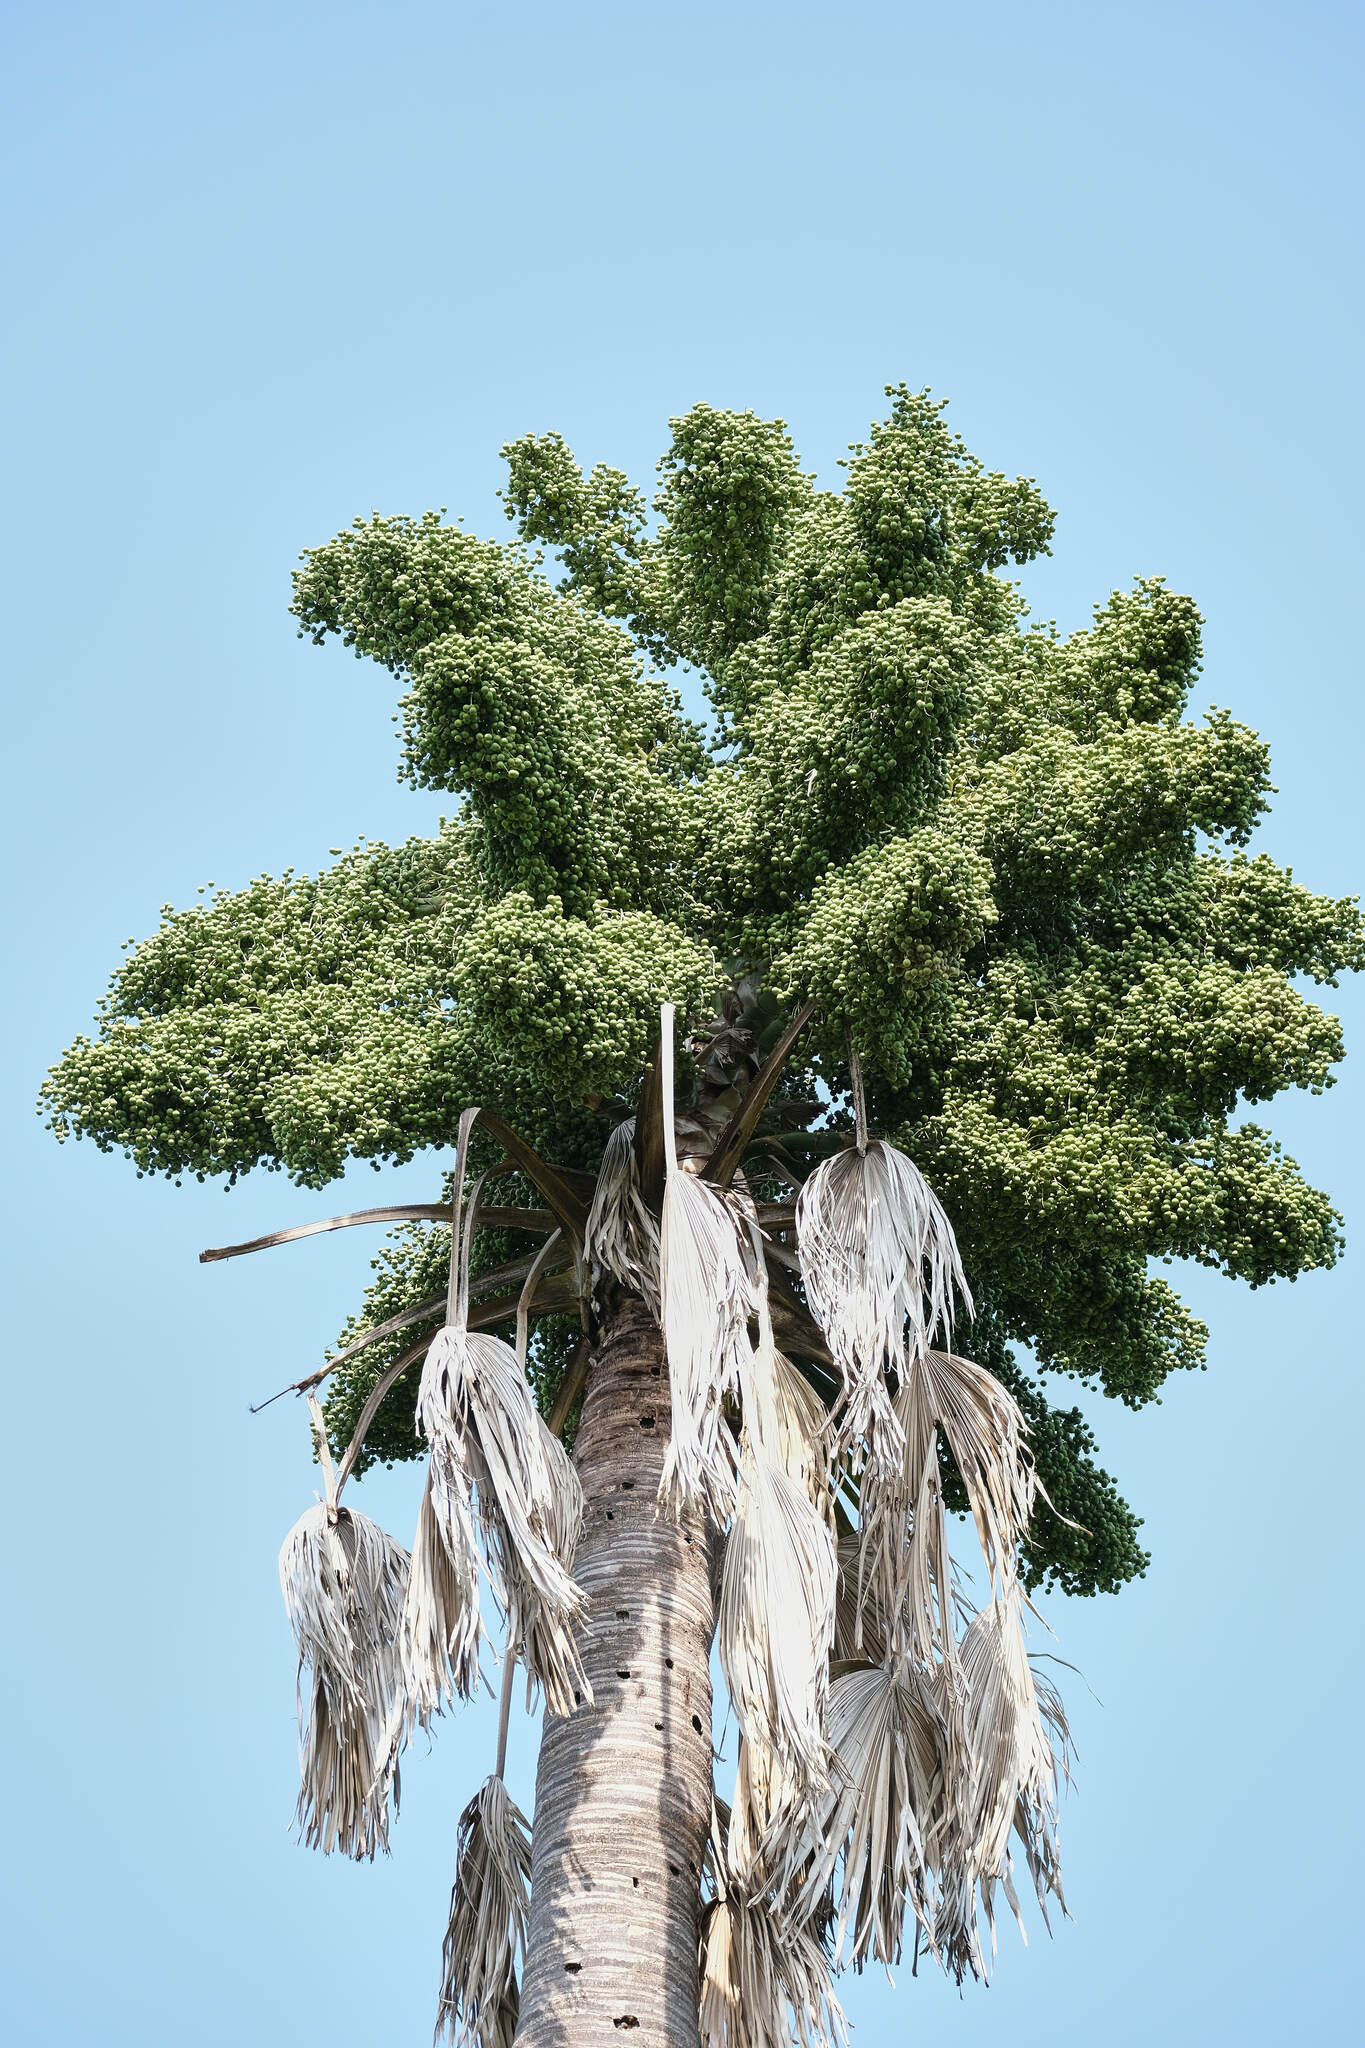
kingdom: Plantae
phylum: Tracheophyta
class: Liliopsida
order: Arecales
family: Arecaceae
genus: Corypha
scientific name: Corypha utan
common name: Buri palm
